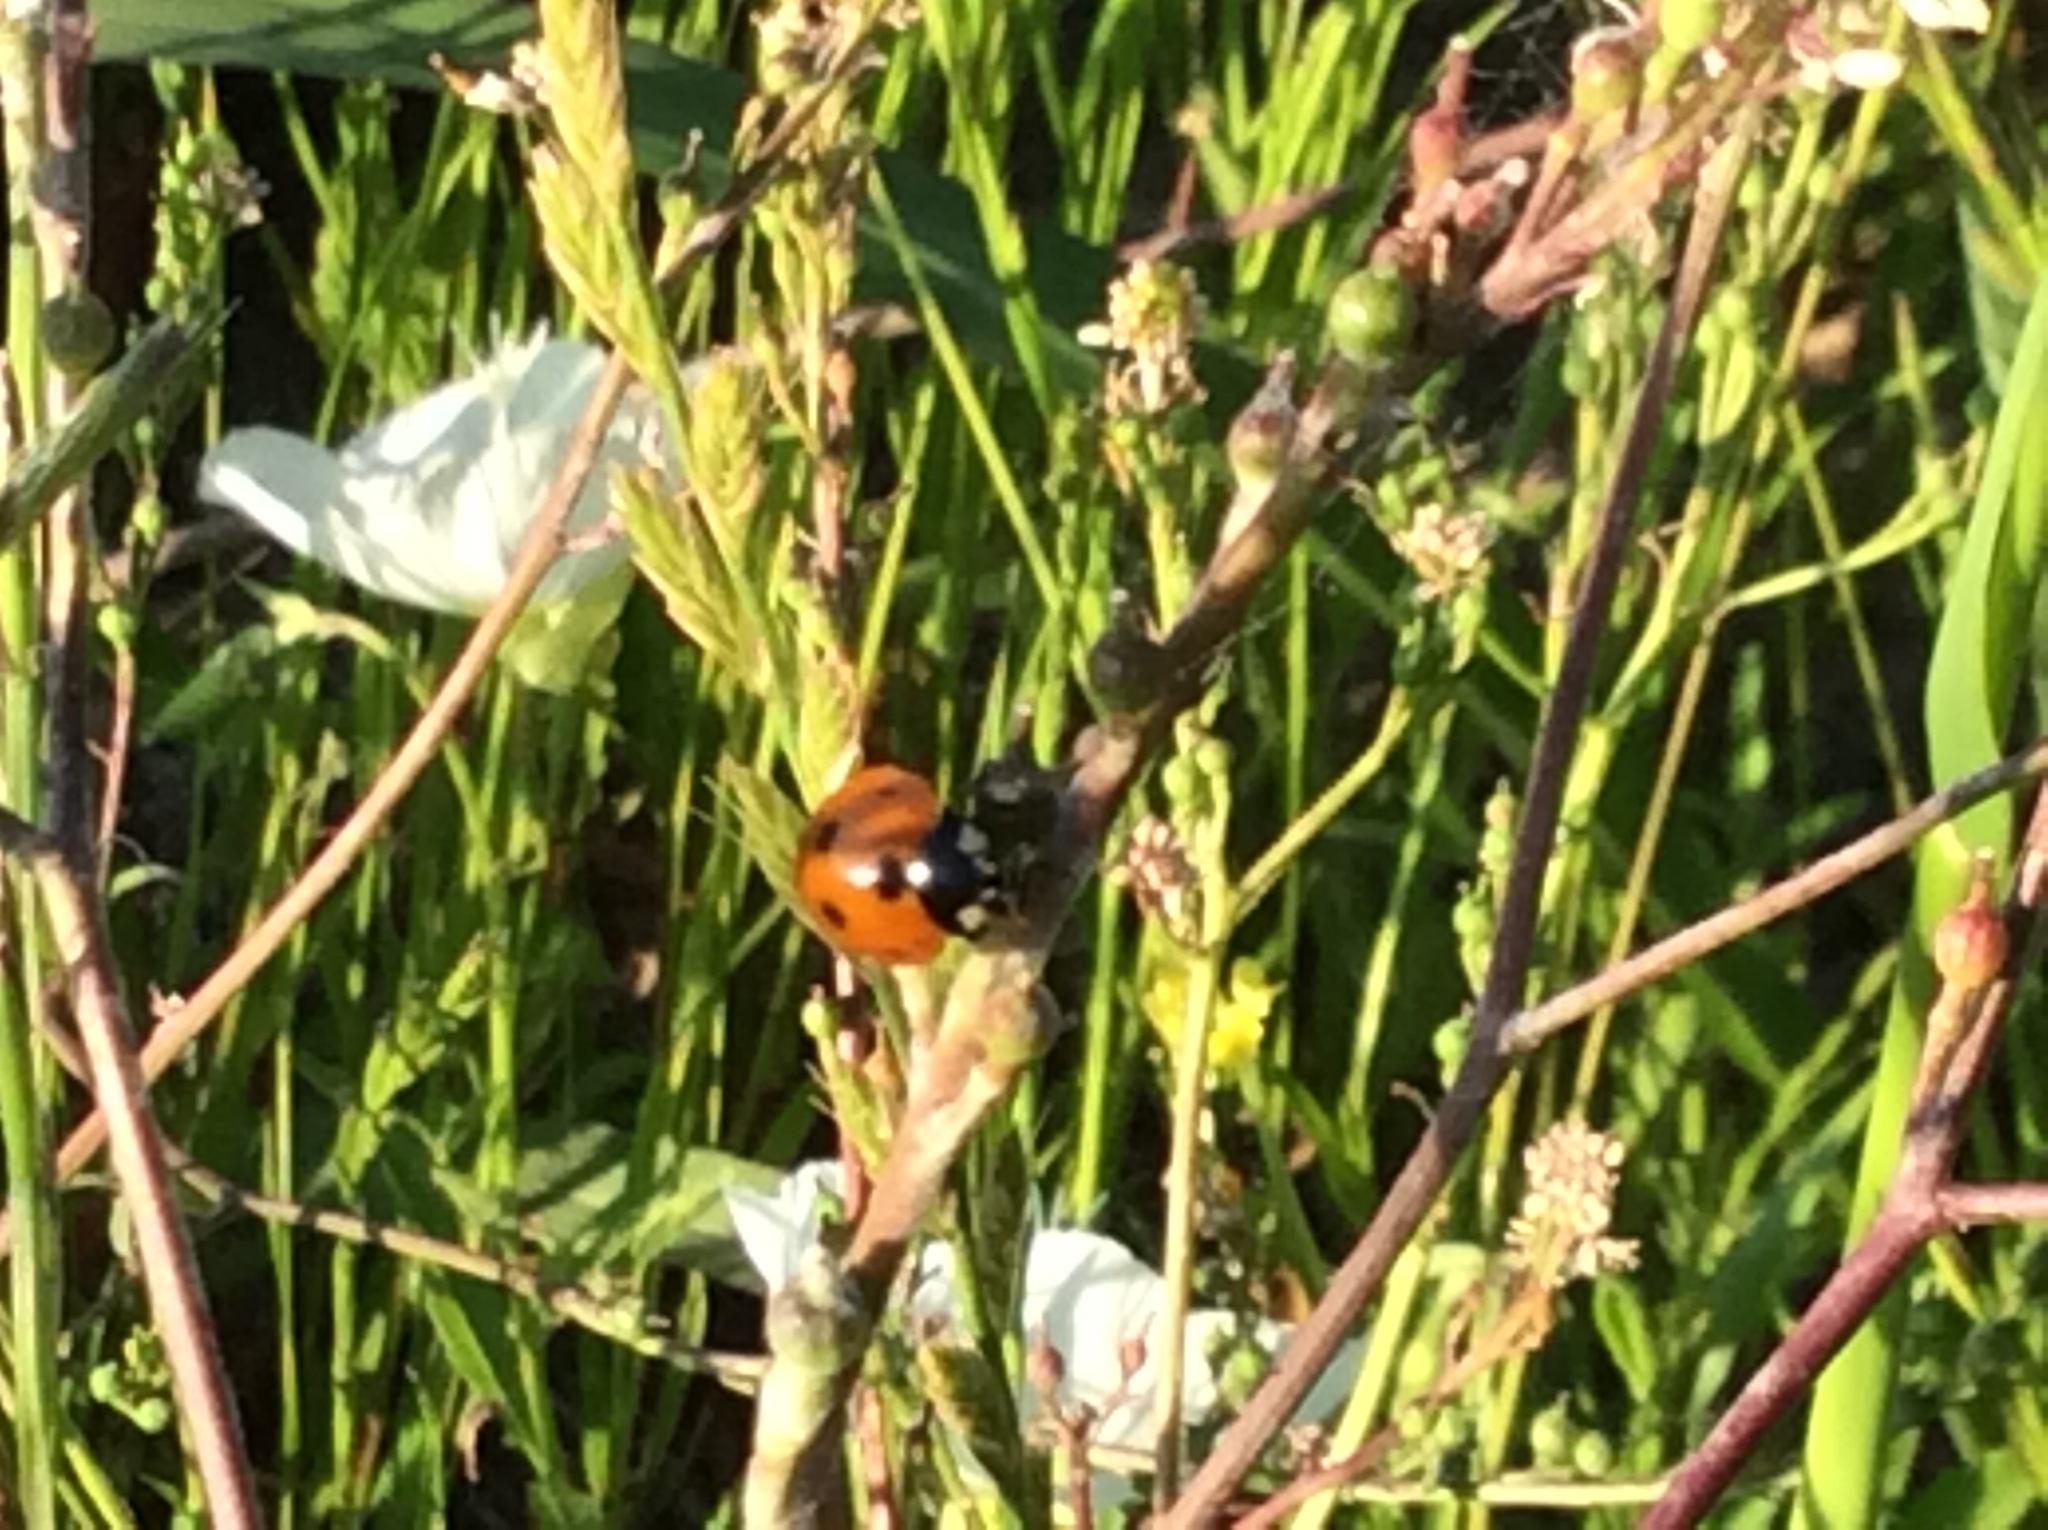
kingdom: Animalia
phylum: Arthropoda
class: Insecta
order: Coleoptera
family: Coccinellidae
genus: Coccinella
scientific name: Coccinella septempunctata
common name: Sevenspotted lady beetle
